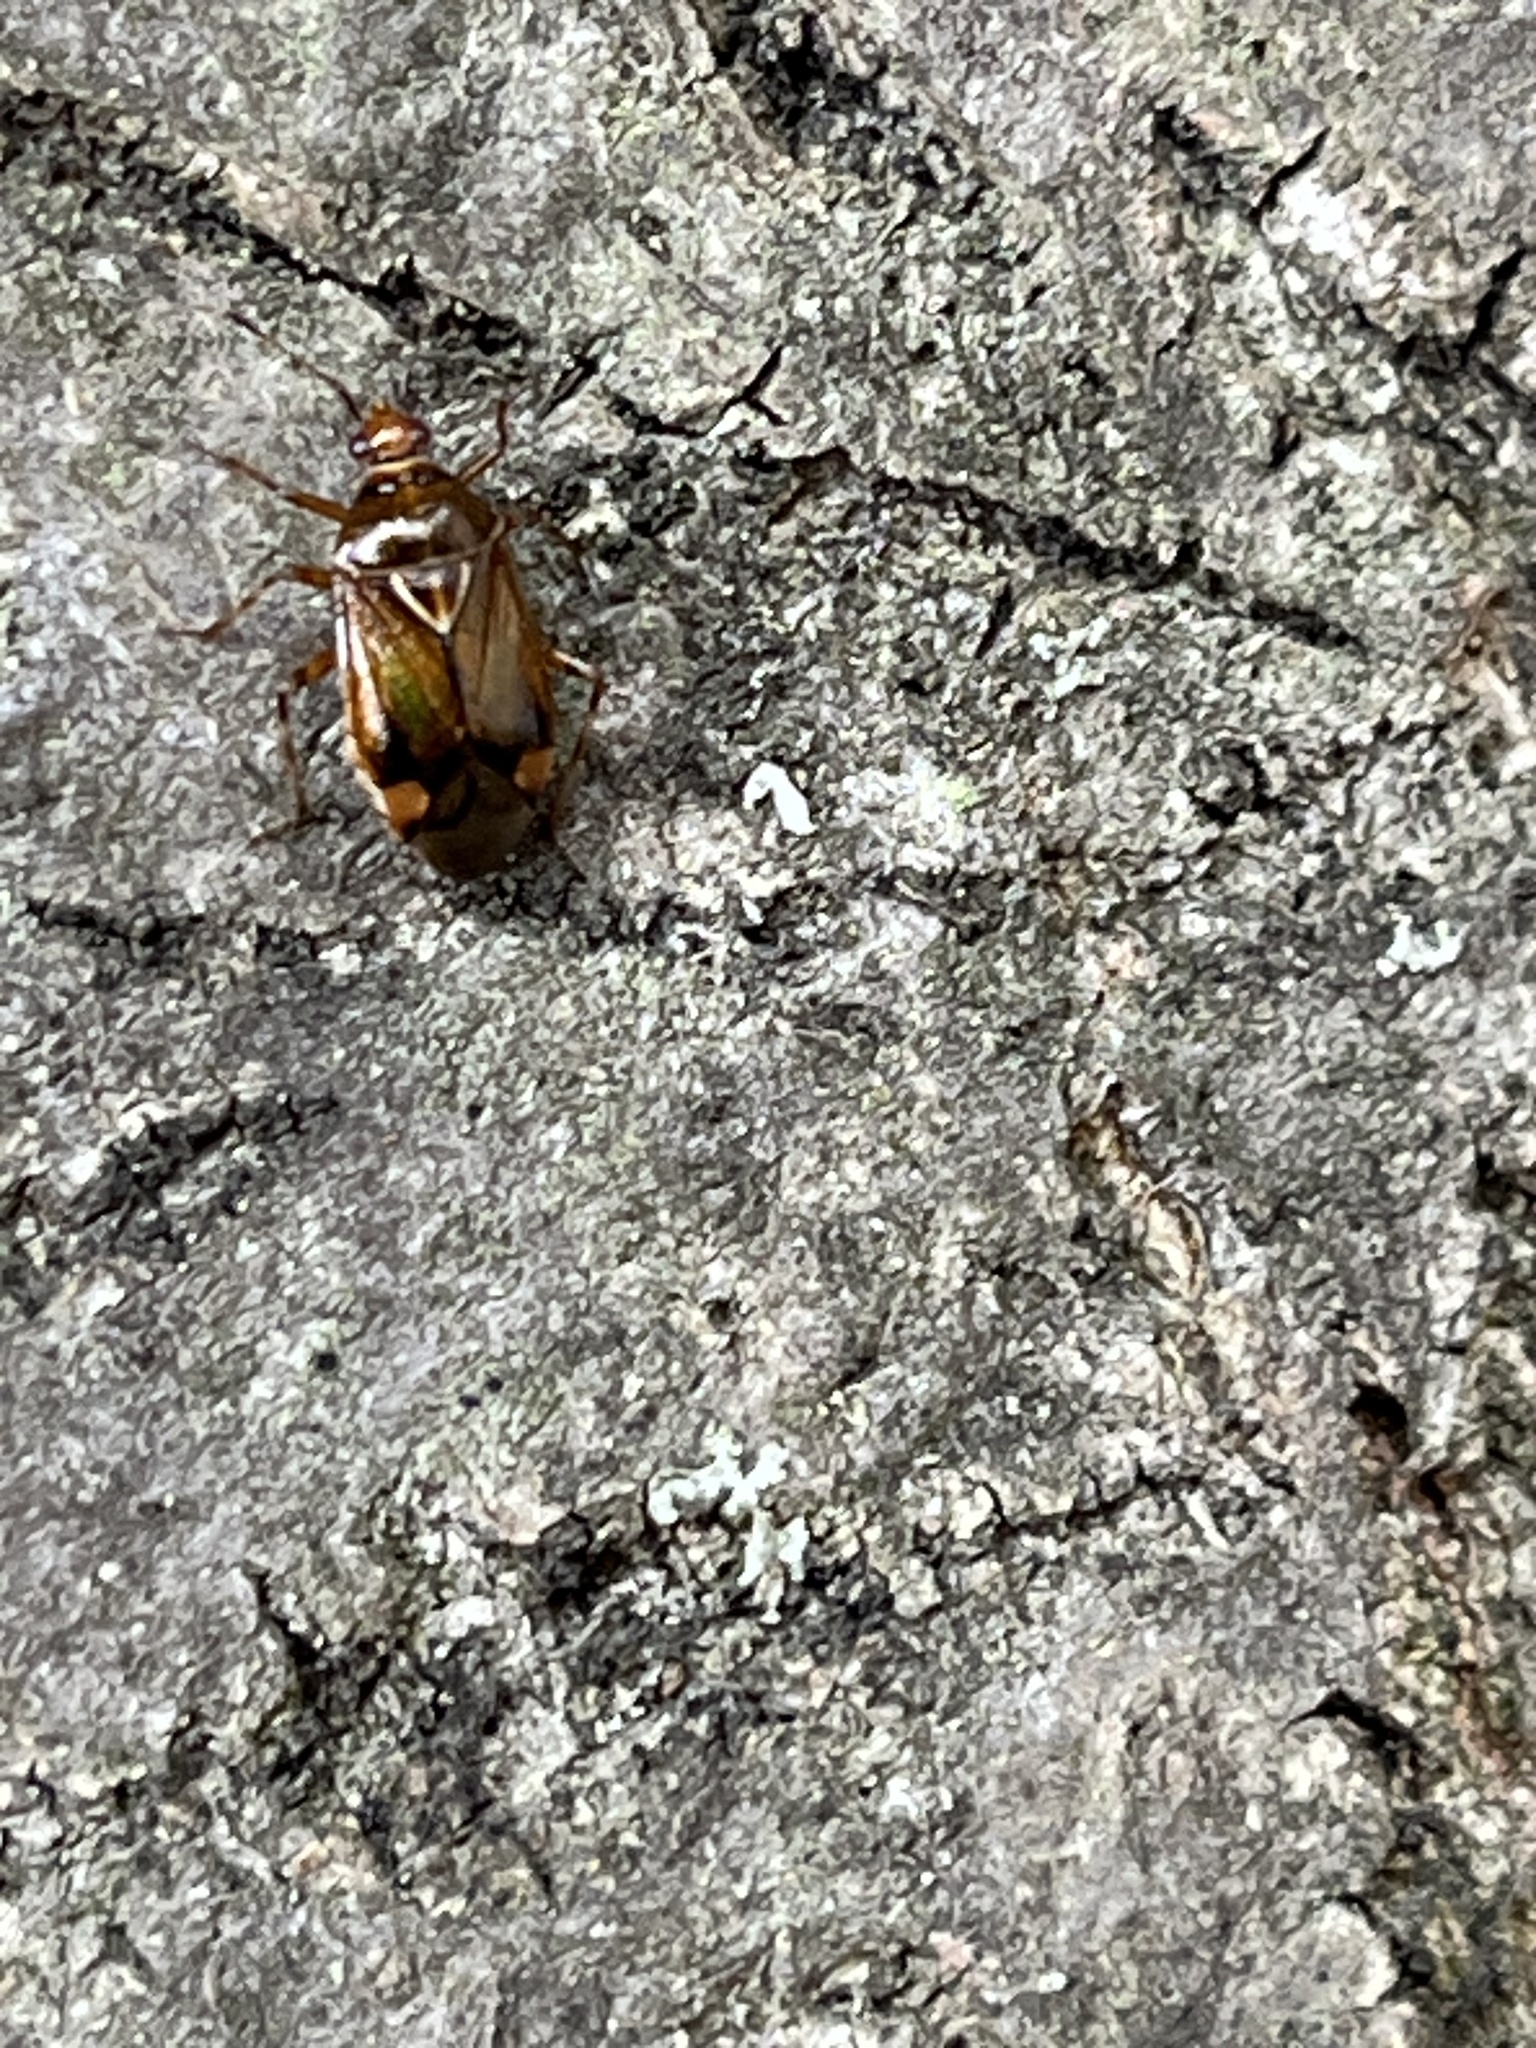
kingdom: Animalia
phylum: Arthropoda
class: Insecta
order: Hemiptera
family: Miridae
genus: Deraeocoris
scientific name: Deraeocoris flavilinea
